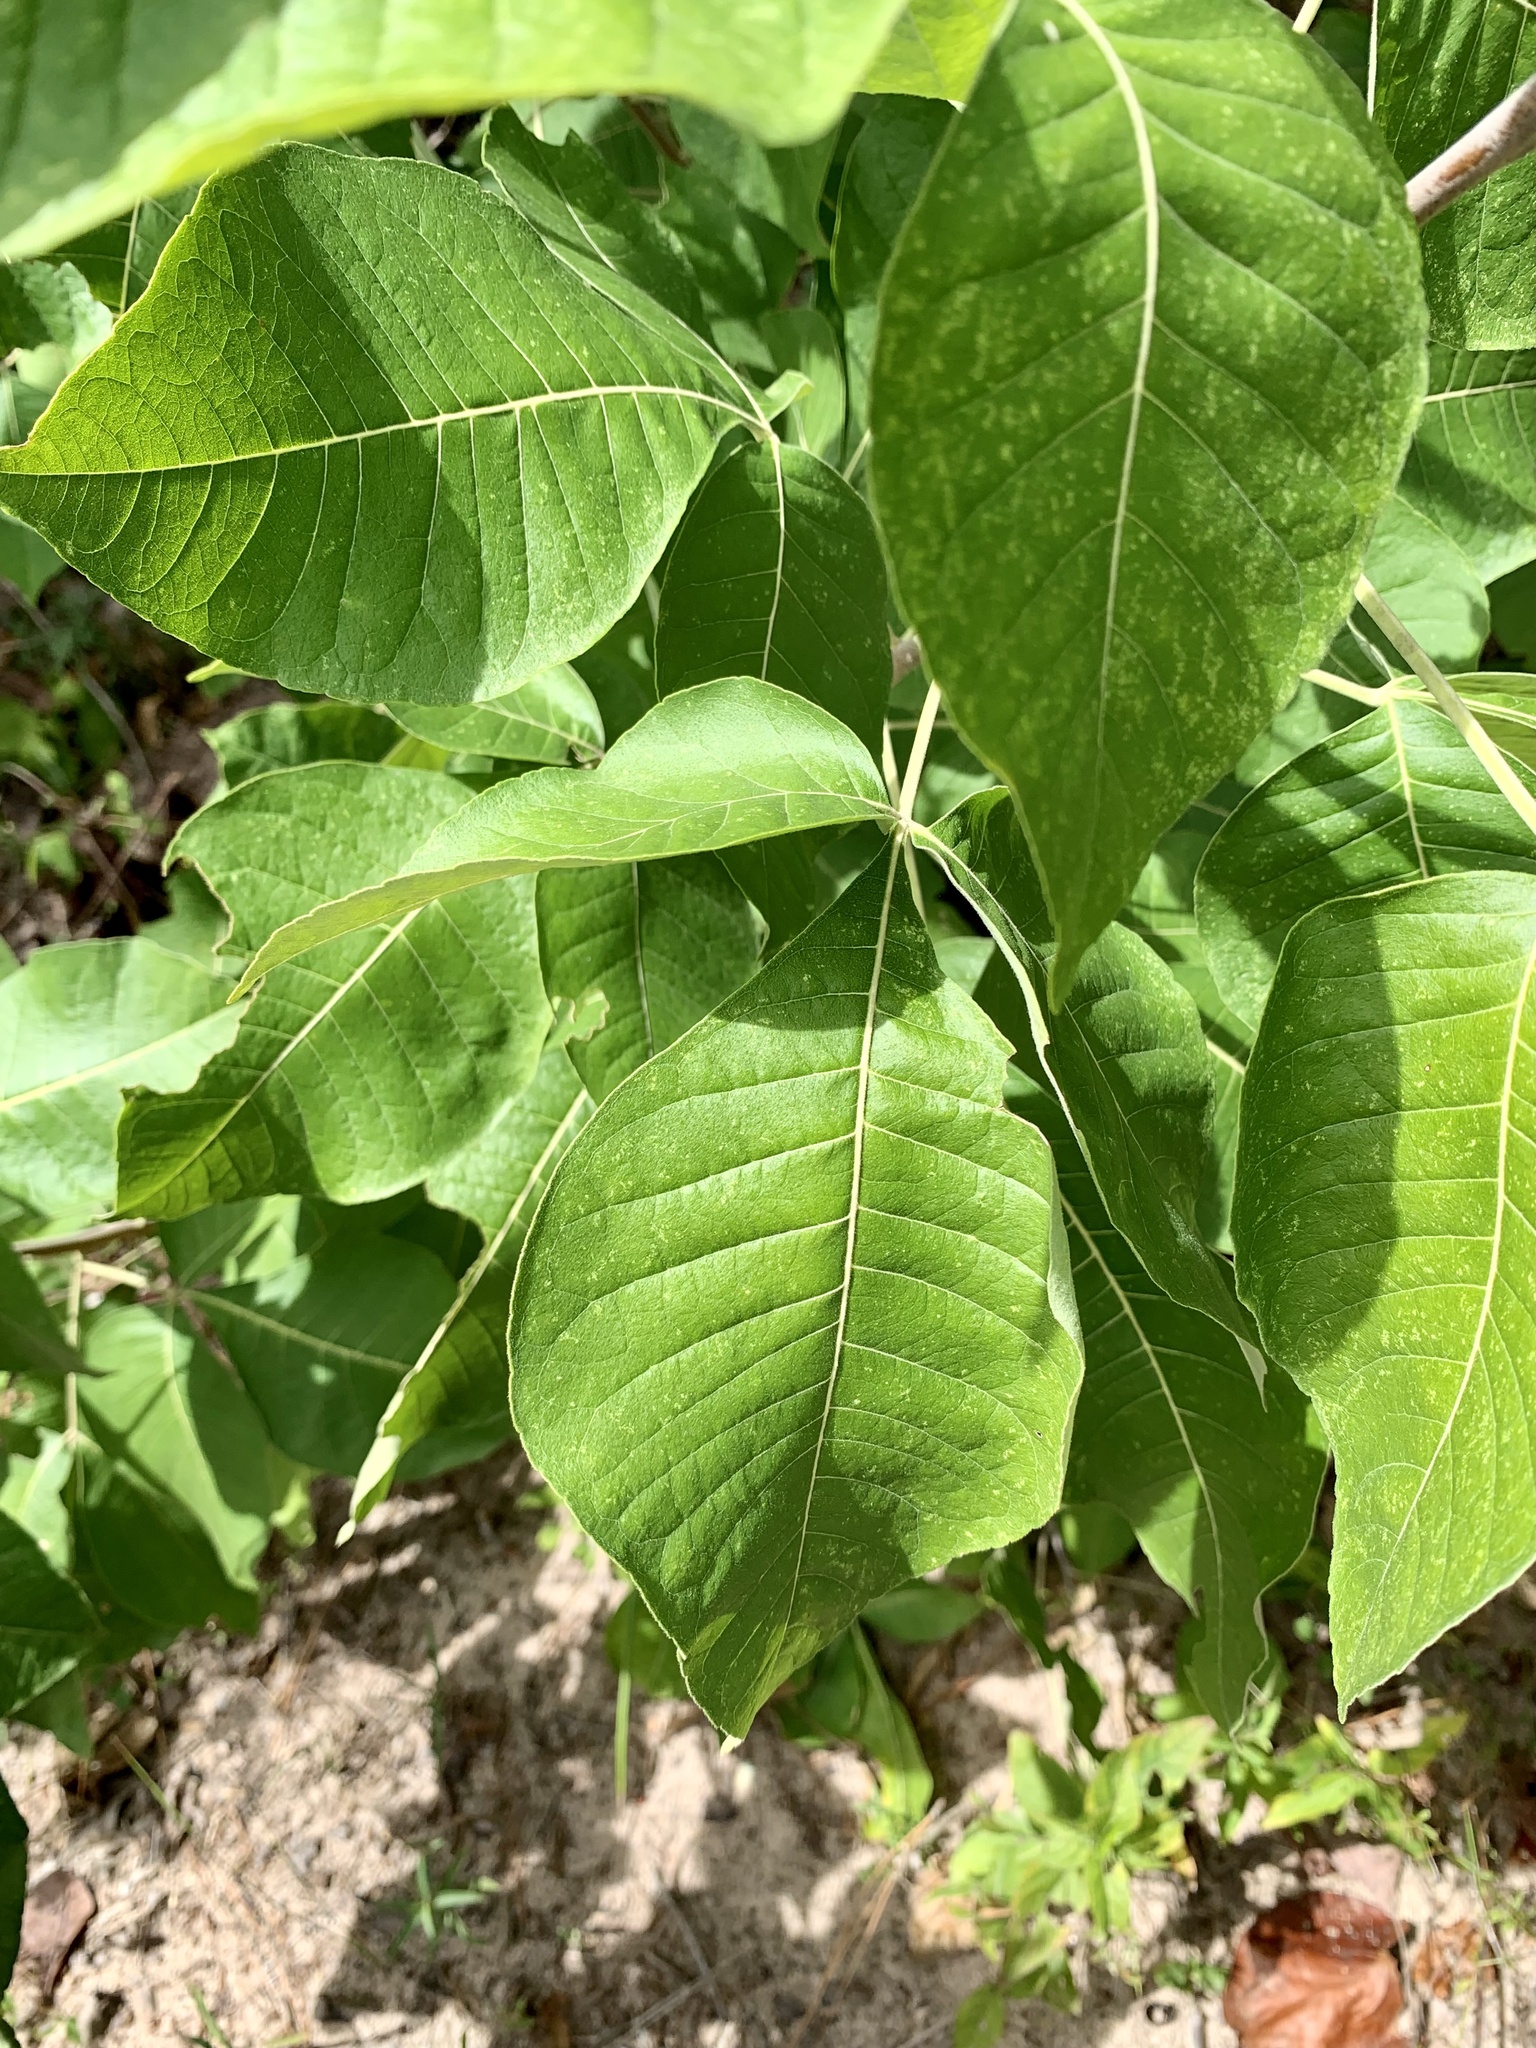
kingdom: Plantae
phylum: Tracheophyta
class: Magnoliopsida
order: Sapindales
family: Rutaceae
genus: Ptelea
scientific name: Ptelea trifoliata
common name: Common hop-tree
